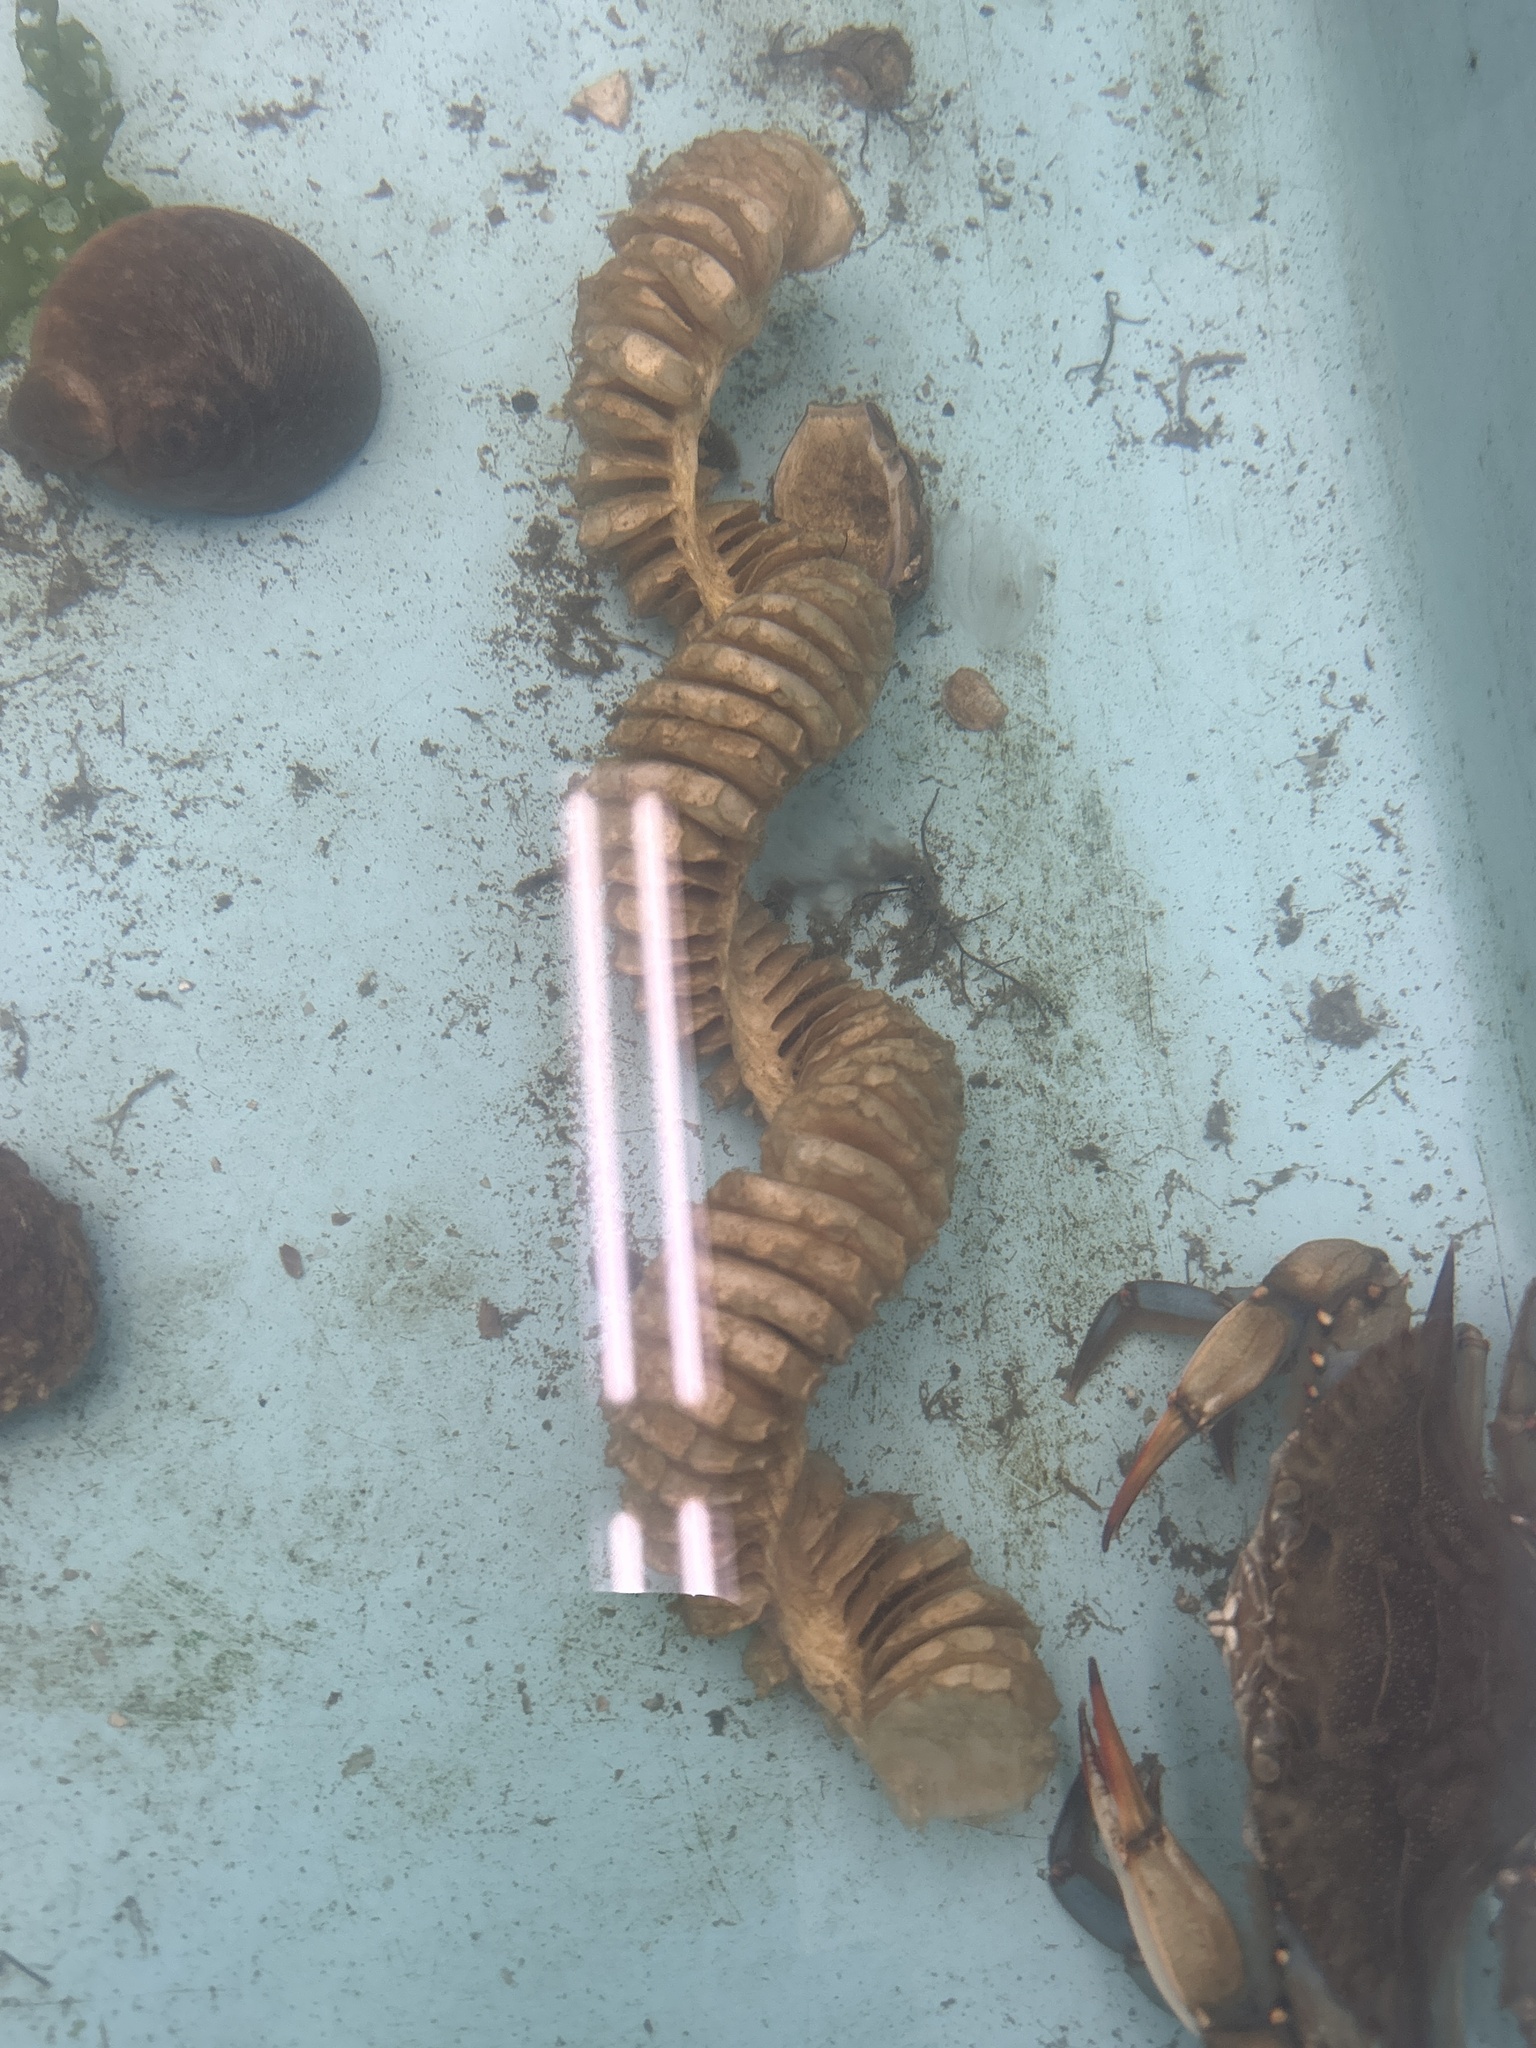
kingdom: Animalia
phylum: Mollusca
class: Gastropoda
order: Neogastropoda
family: Busyconidae
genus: Busycon
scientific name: Busycon carica
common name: Knobbed whelk
